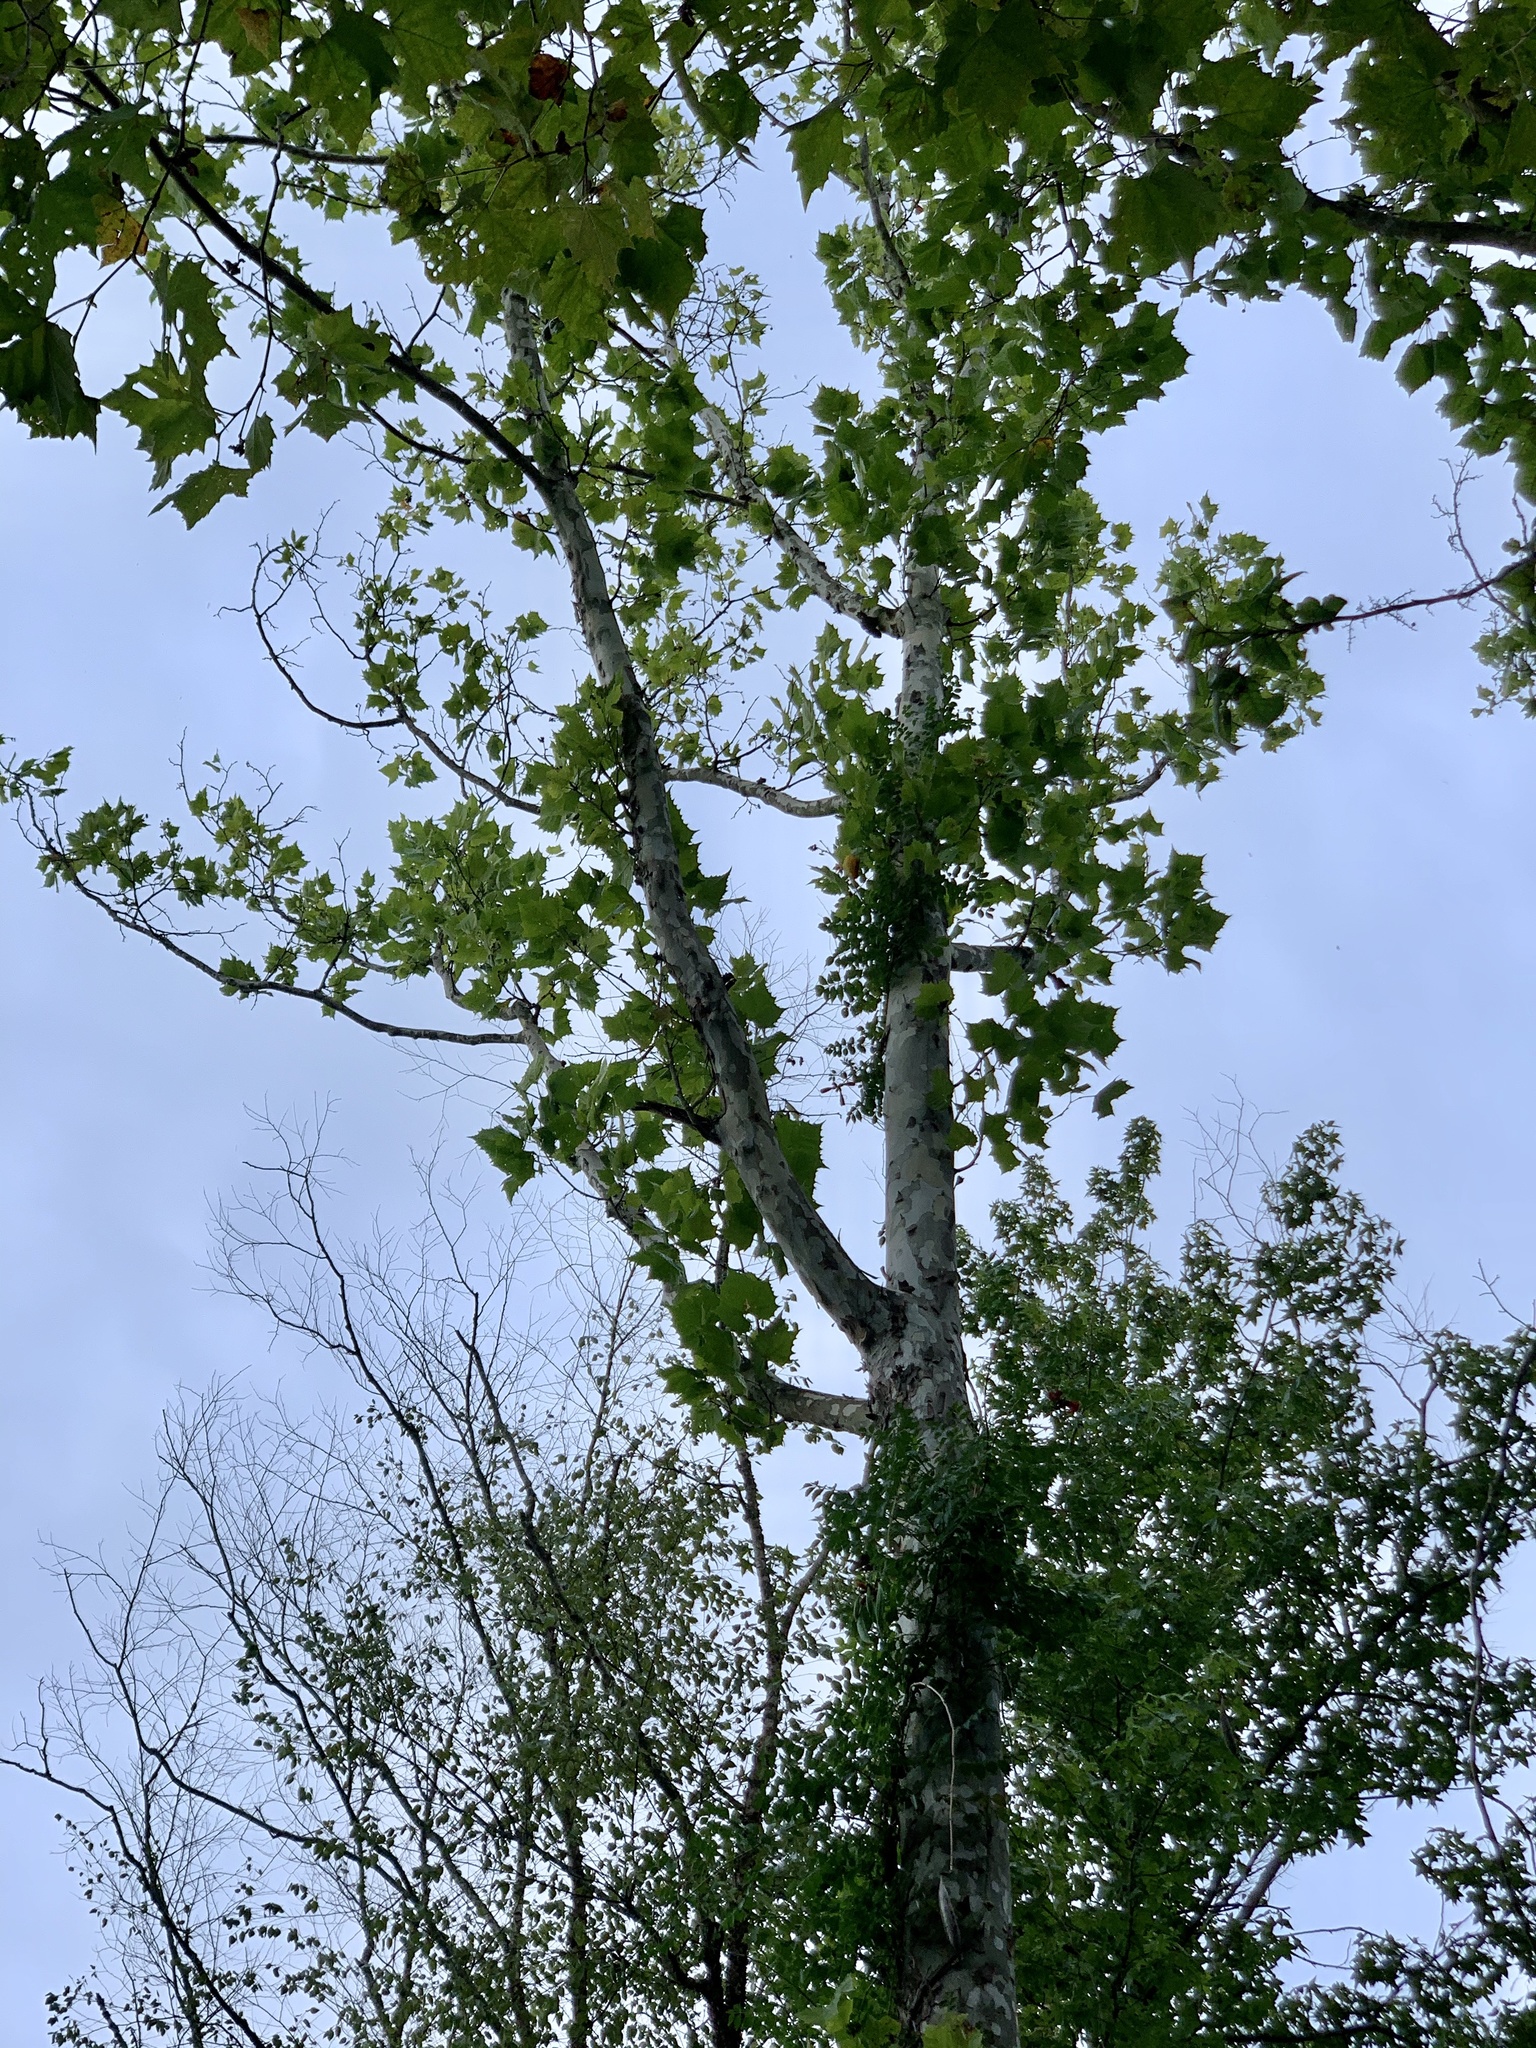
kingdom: Plantae
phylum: Tracheophyta
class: Magnoliopsida
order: Proteales
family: Platanaceae
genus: Platanus
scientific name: Platanus occidentalis
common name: American sycamore
